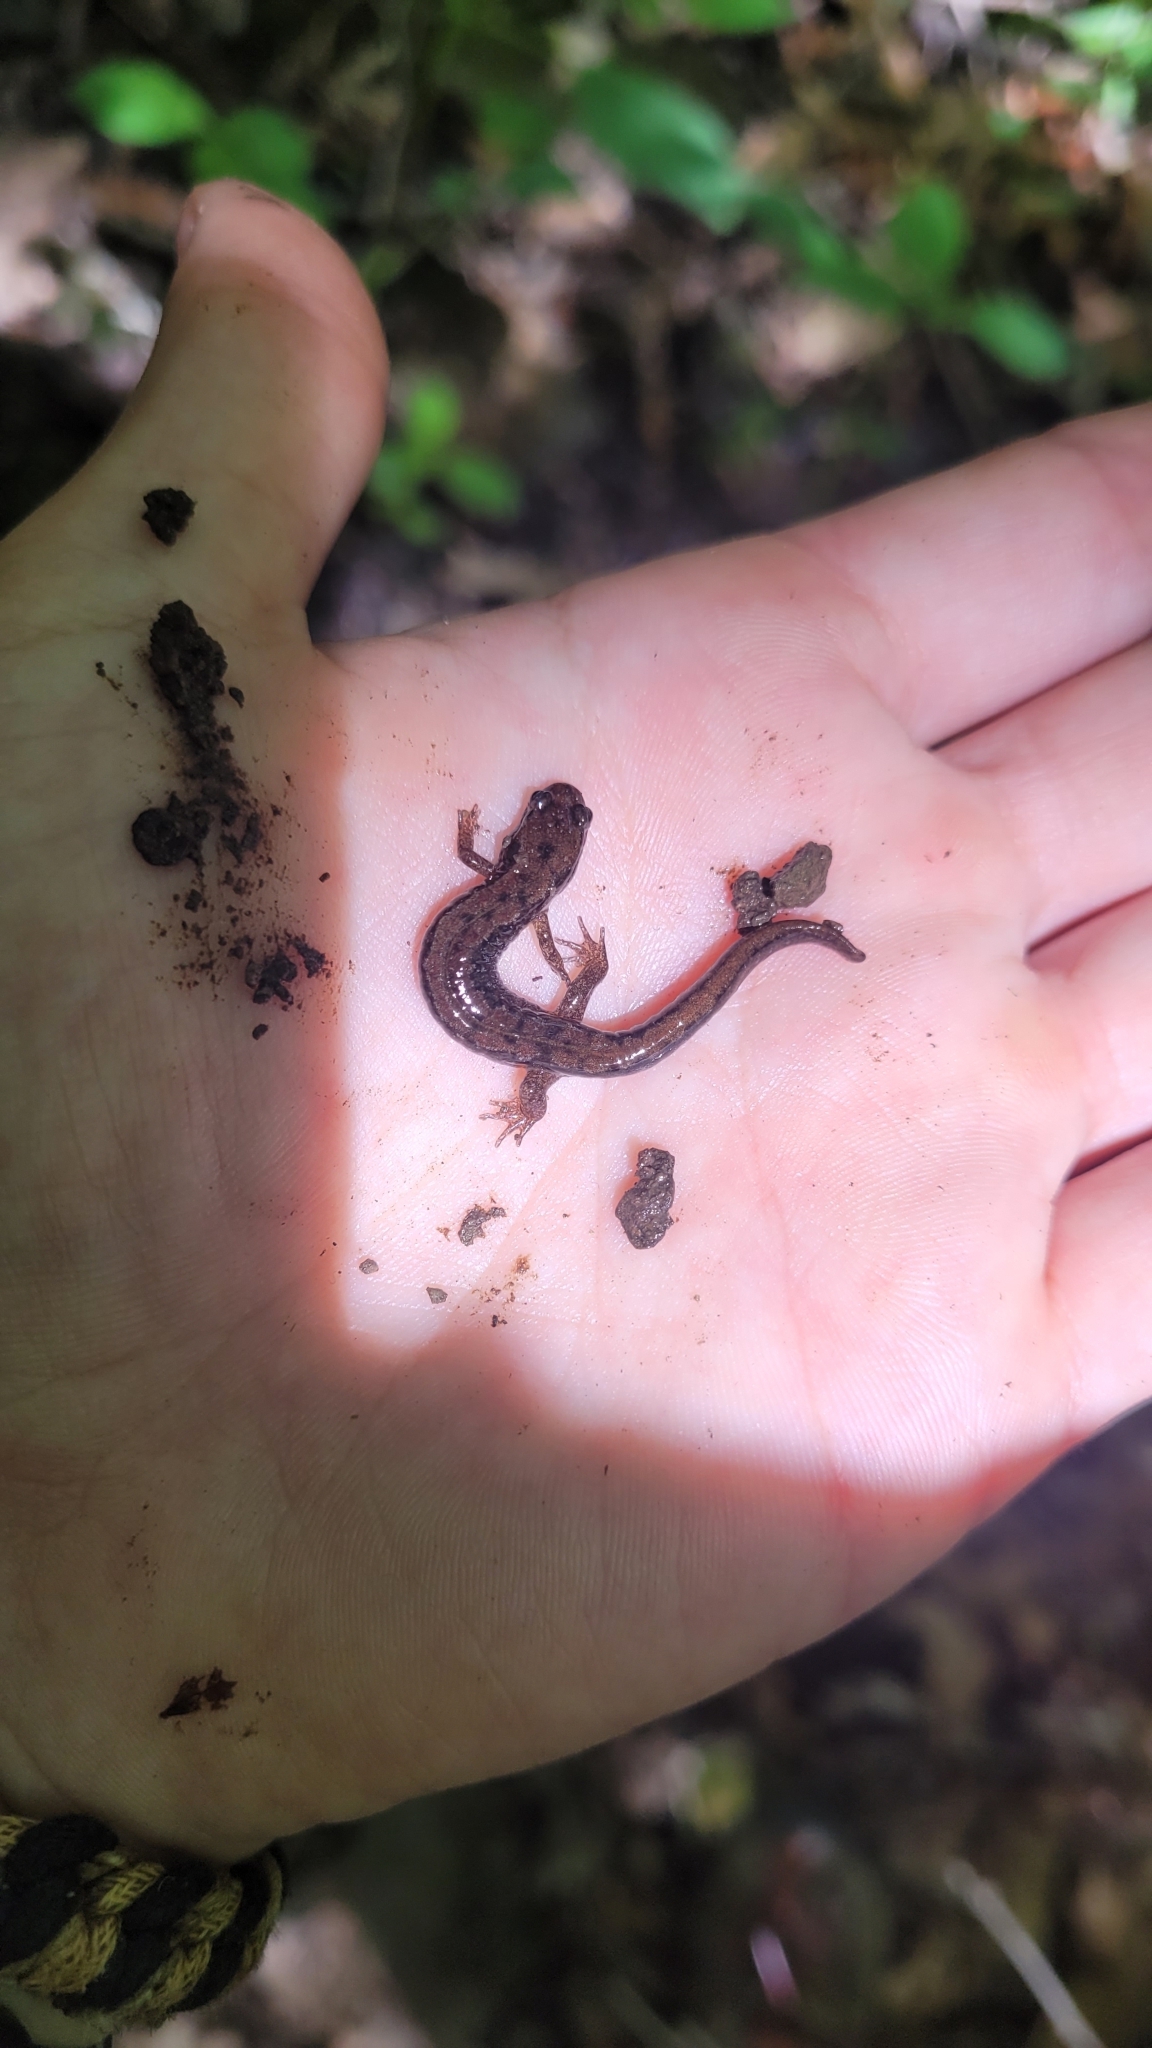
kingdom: Animalia
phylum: Chordata
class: Amphibia
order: Caudata
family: Plethodontidae
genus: Desmognathus
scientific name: Desmognathus fuscus
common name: Northern dusky salamander
